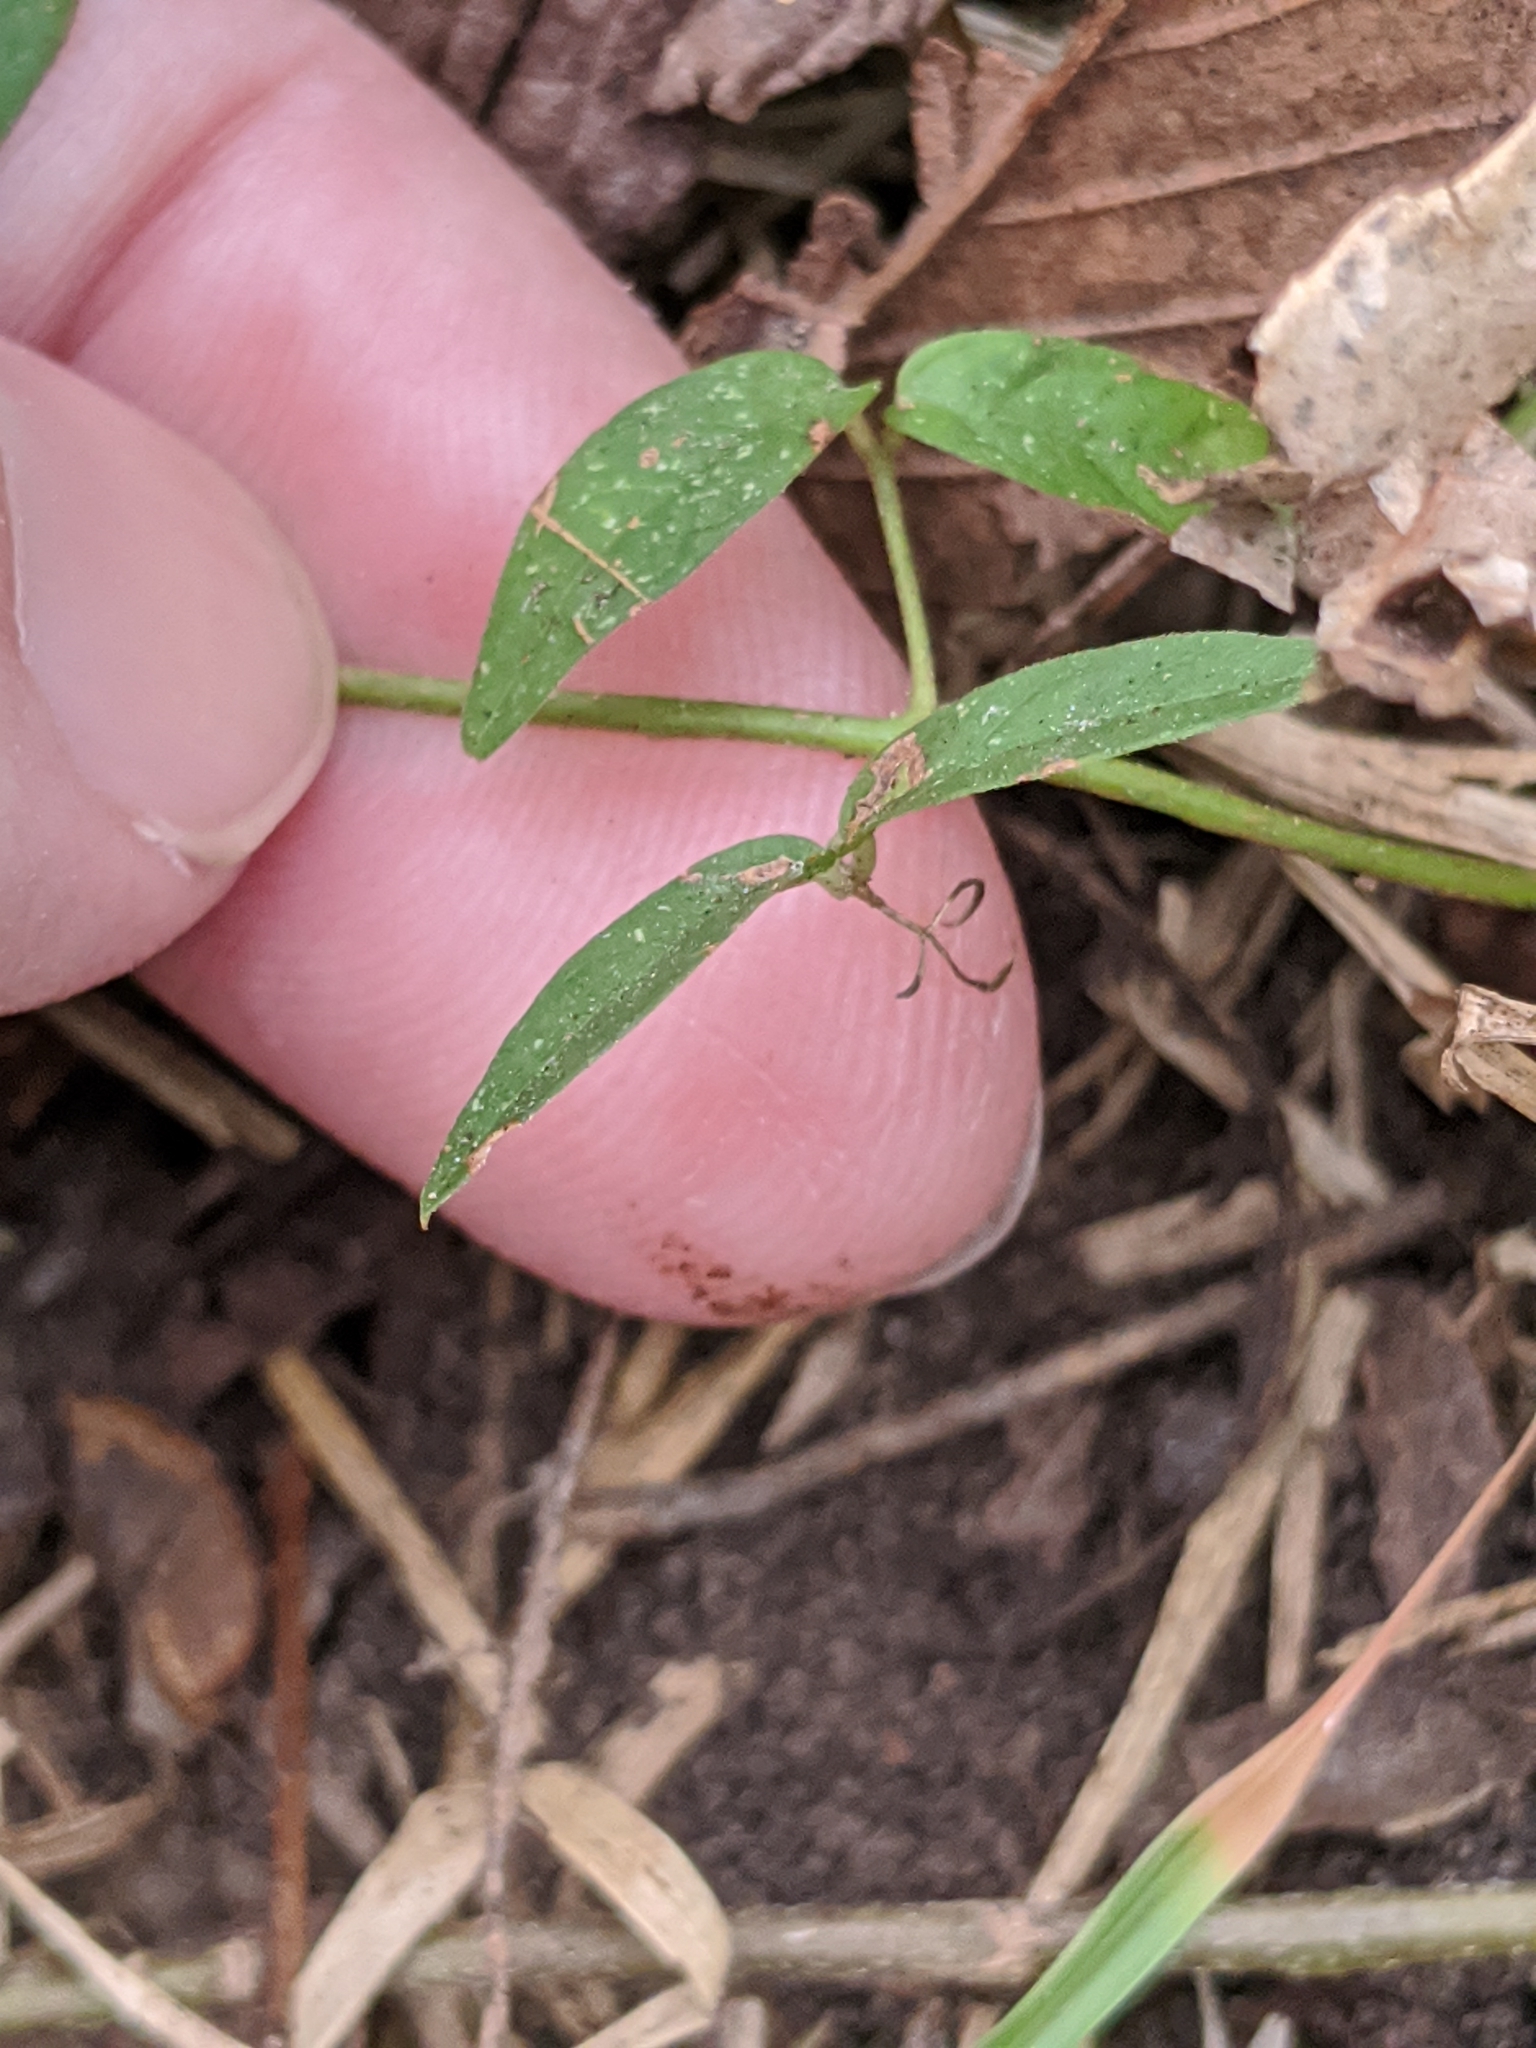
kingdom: Plantae
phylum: Tracheophyta
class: Magnoliopsida
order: Lamiales
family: Bignoniaceae
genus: Dolichandra
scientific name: Dolichandra unguis-cati
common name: Catclaw vine
